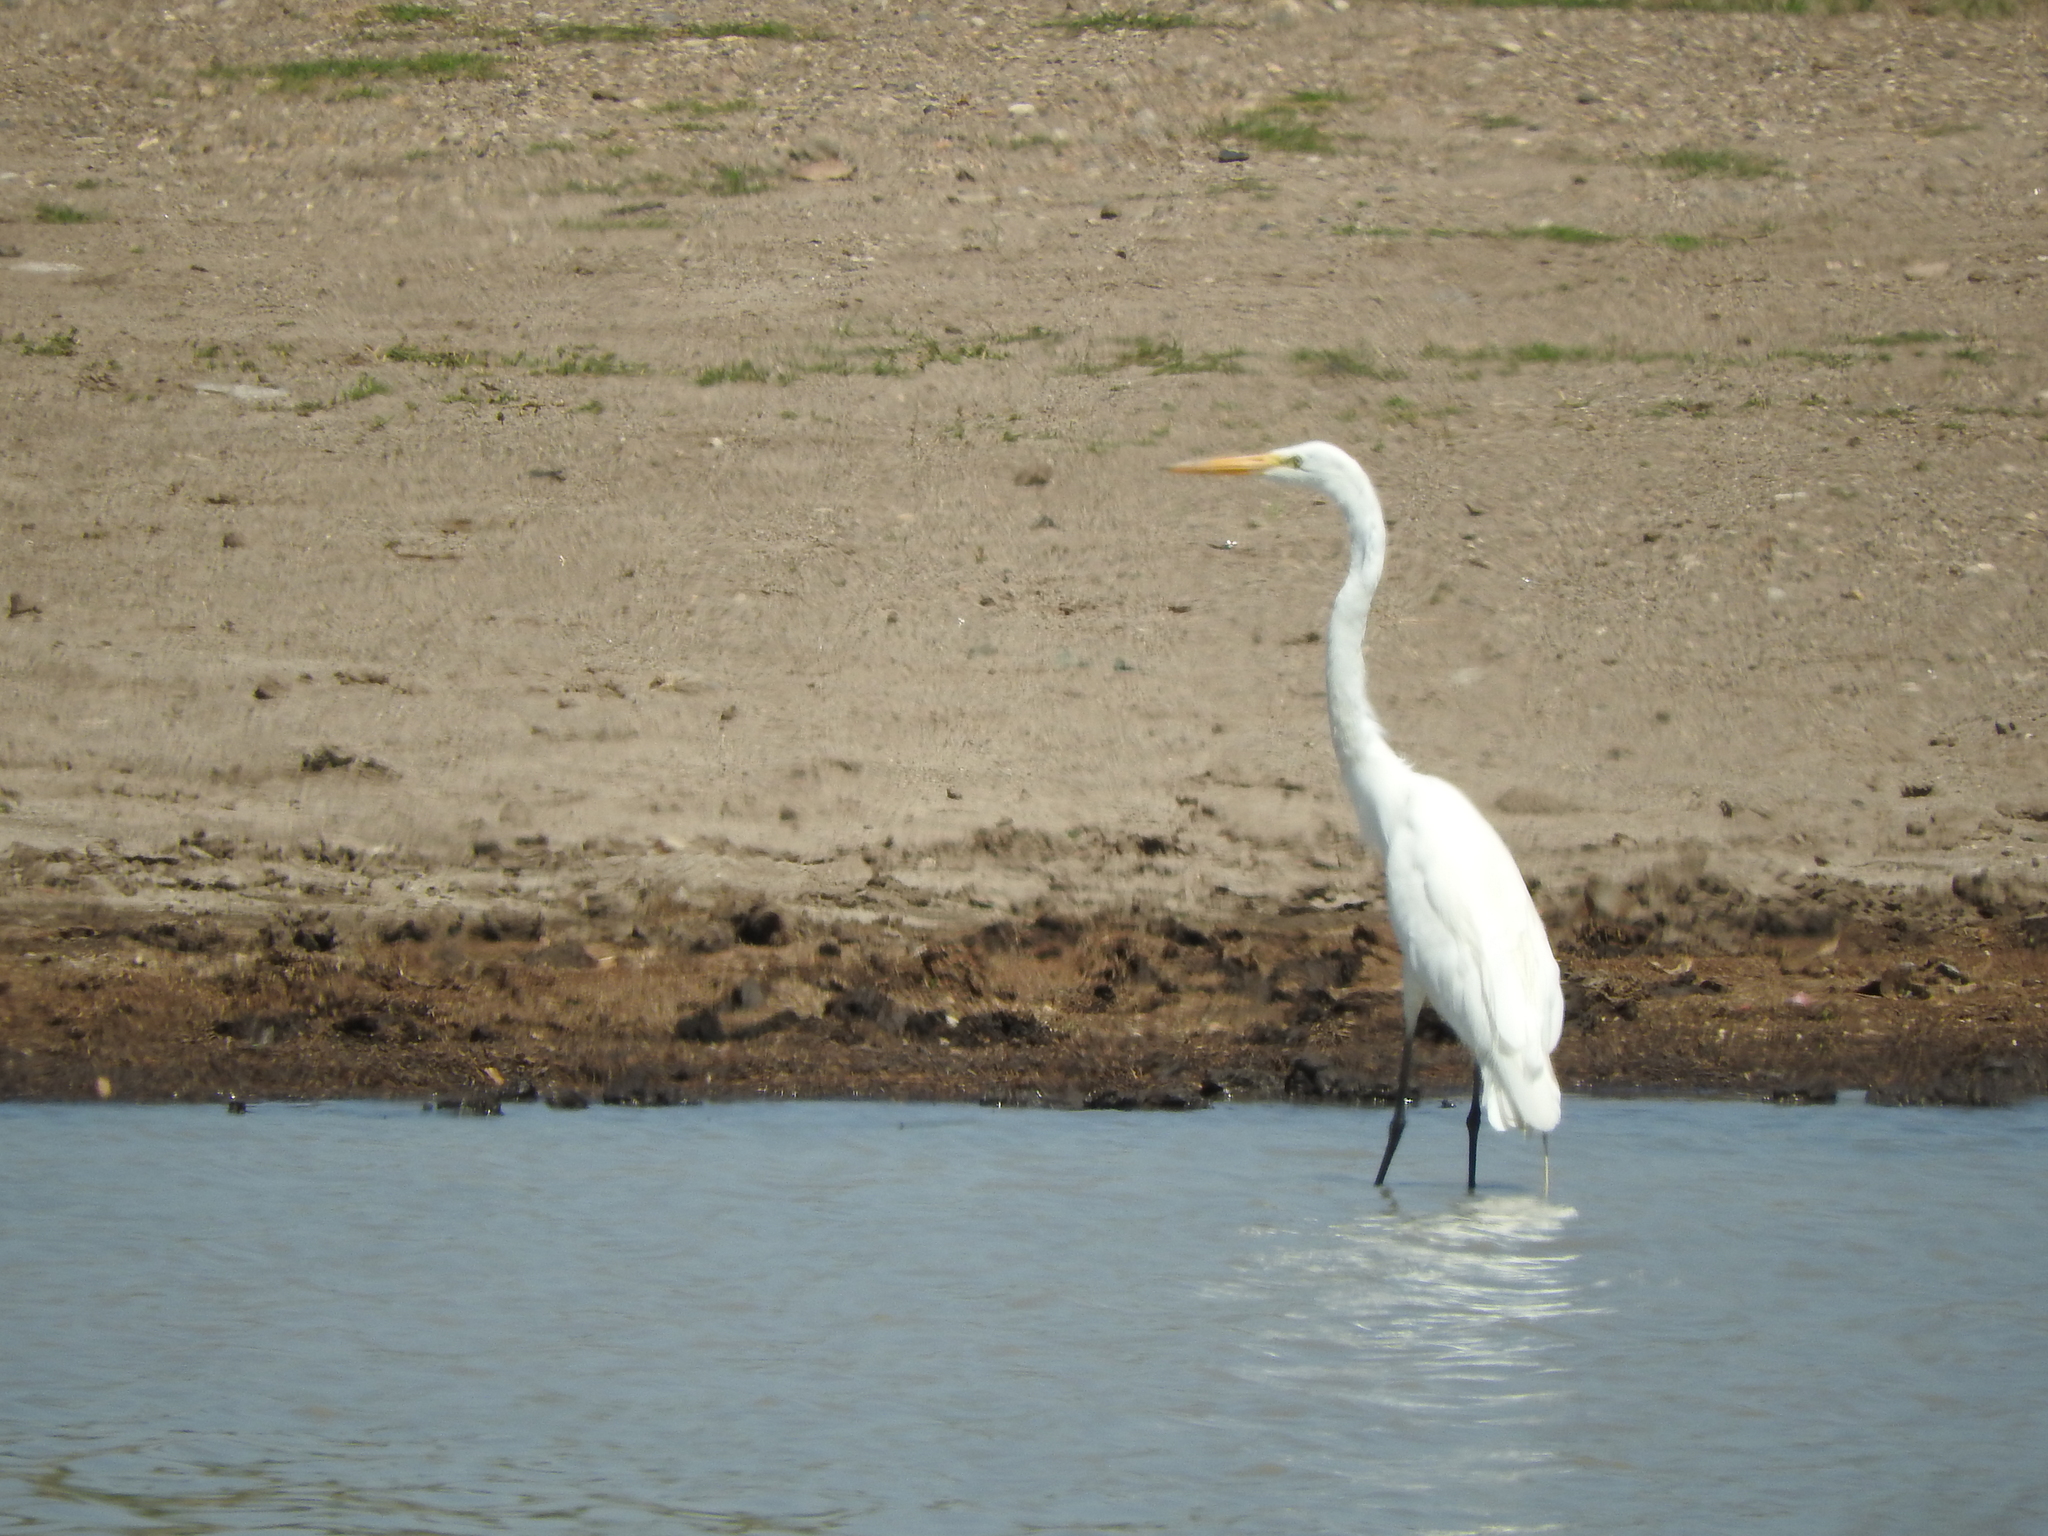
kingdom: Animalia
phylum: Chordata
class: Aves
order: Pelecaniformes
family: Ardeidae
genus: Ardea
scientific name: Ardea alba
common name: Great egret
